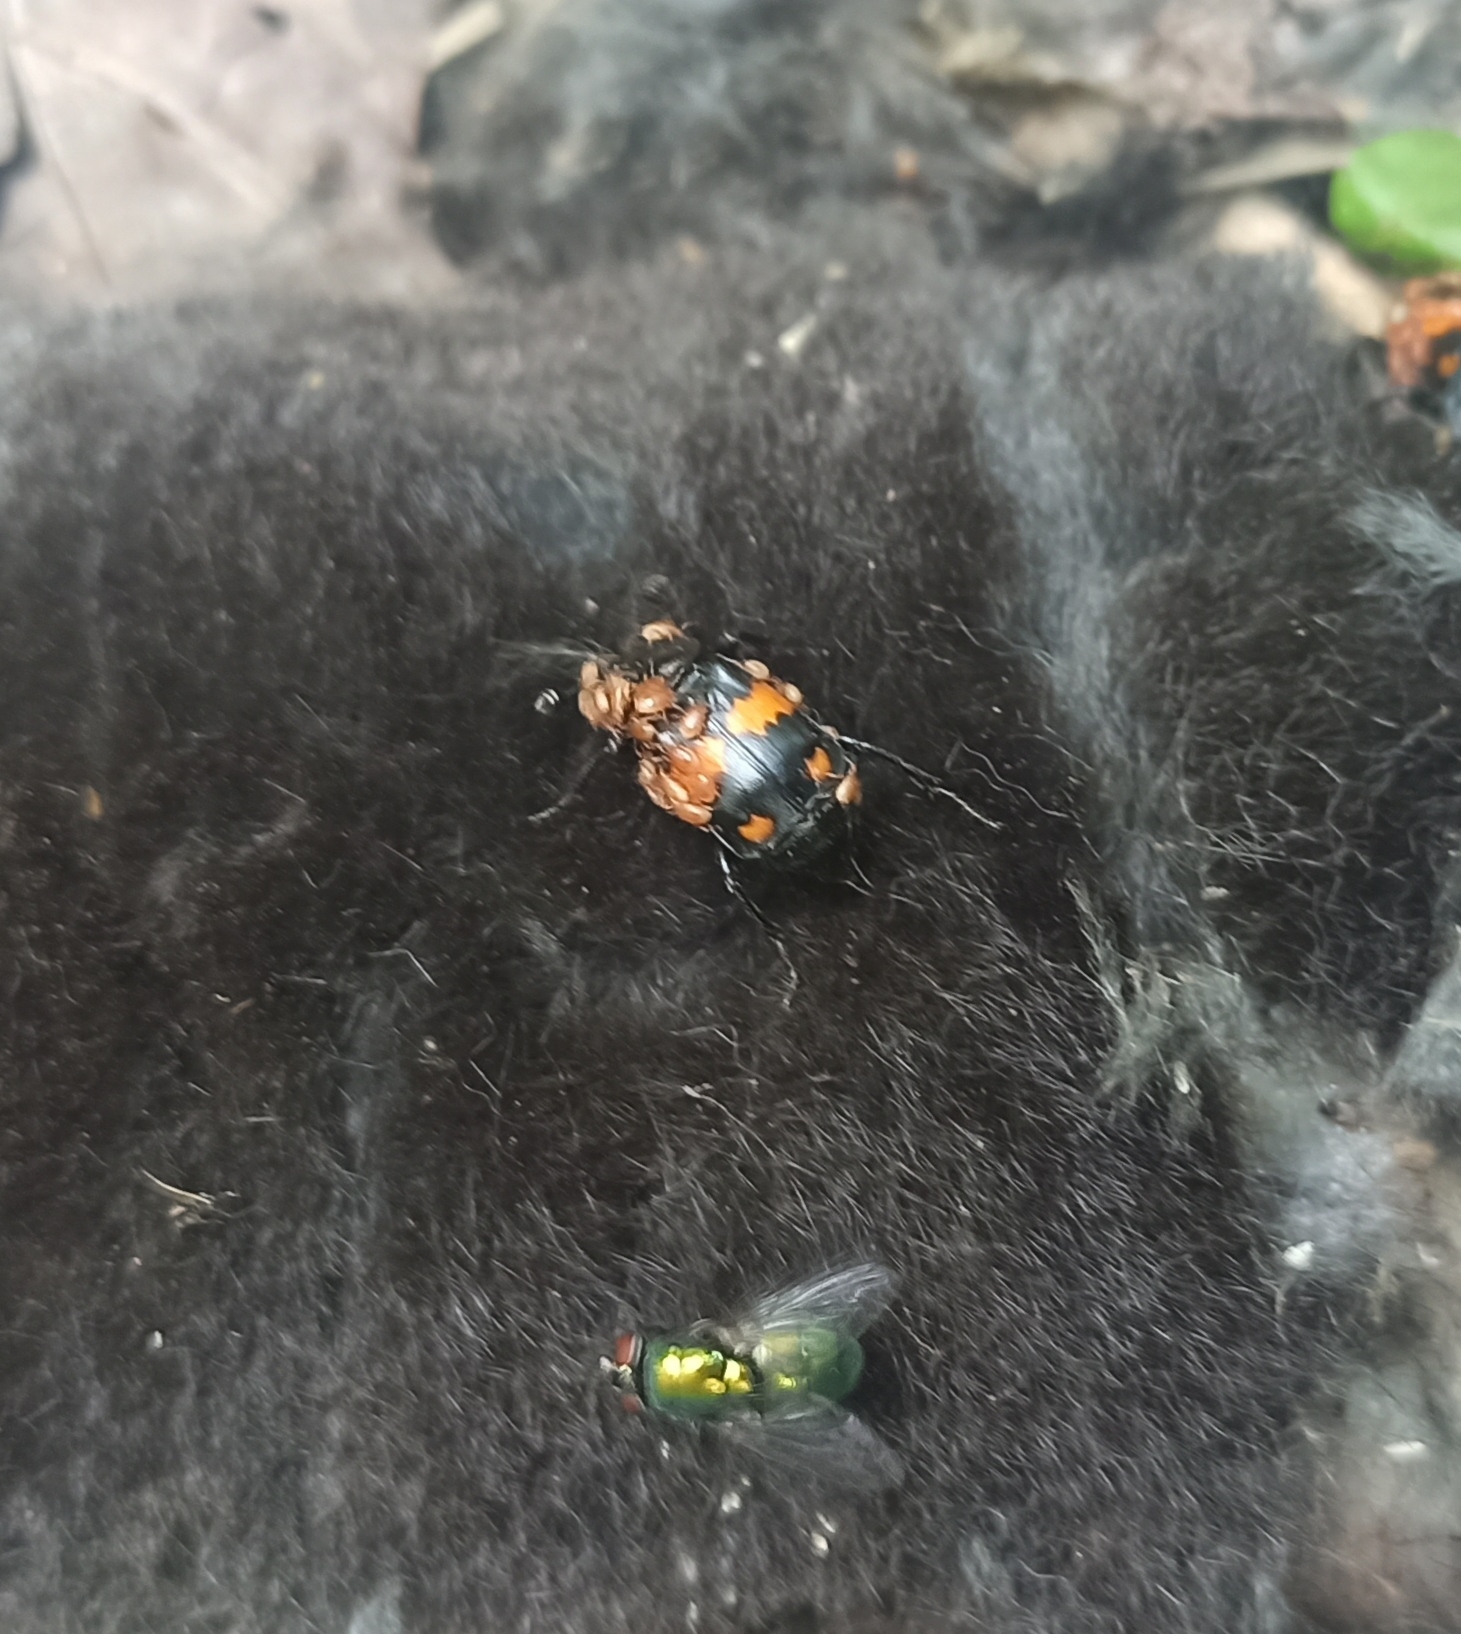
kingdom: Animalia
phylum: Arthropoda
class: Insecta
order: Coleoptera
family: Staphylinidae
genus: Nicrophorus
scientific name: Nicrophorus vespilloides
